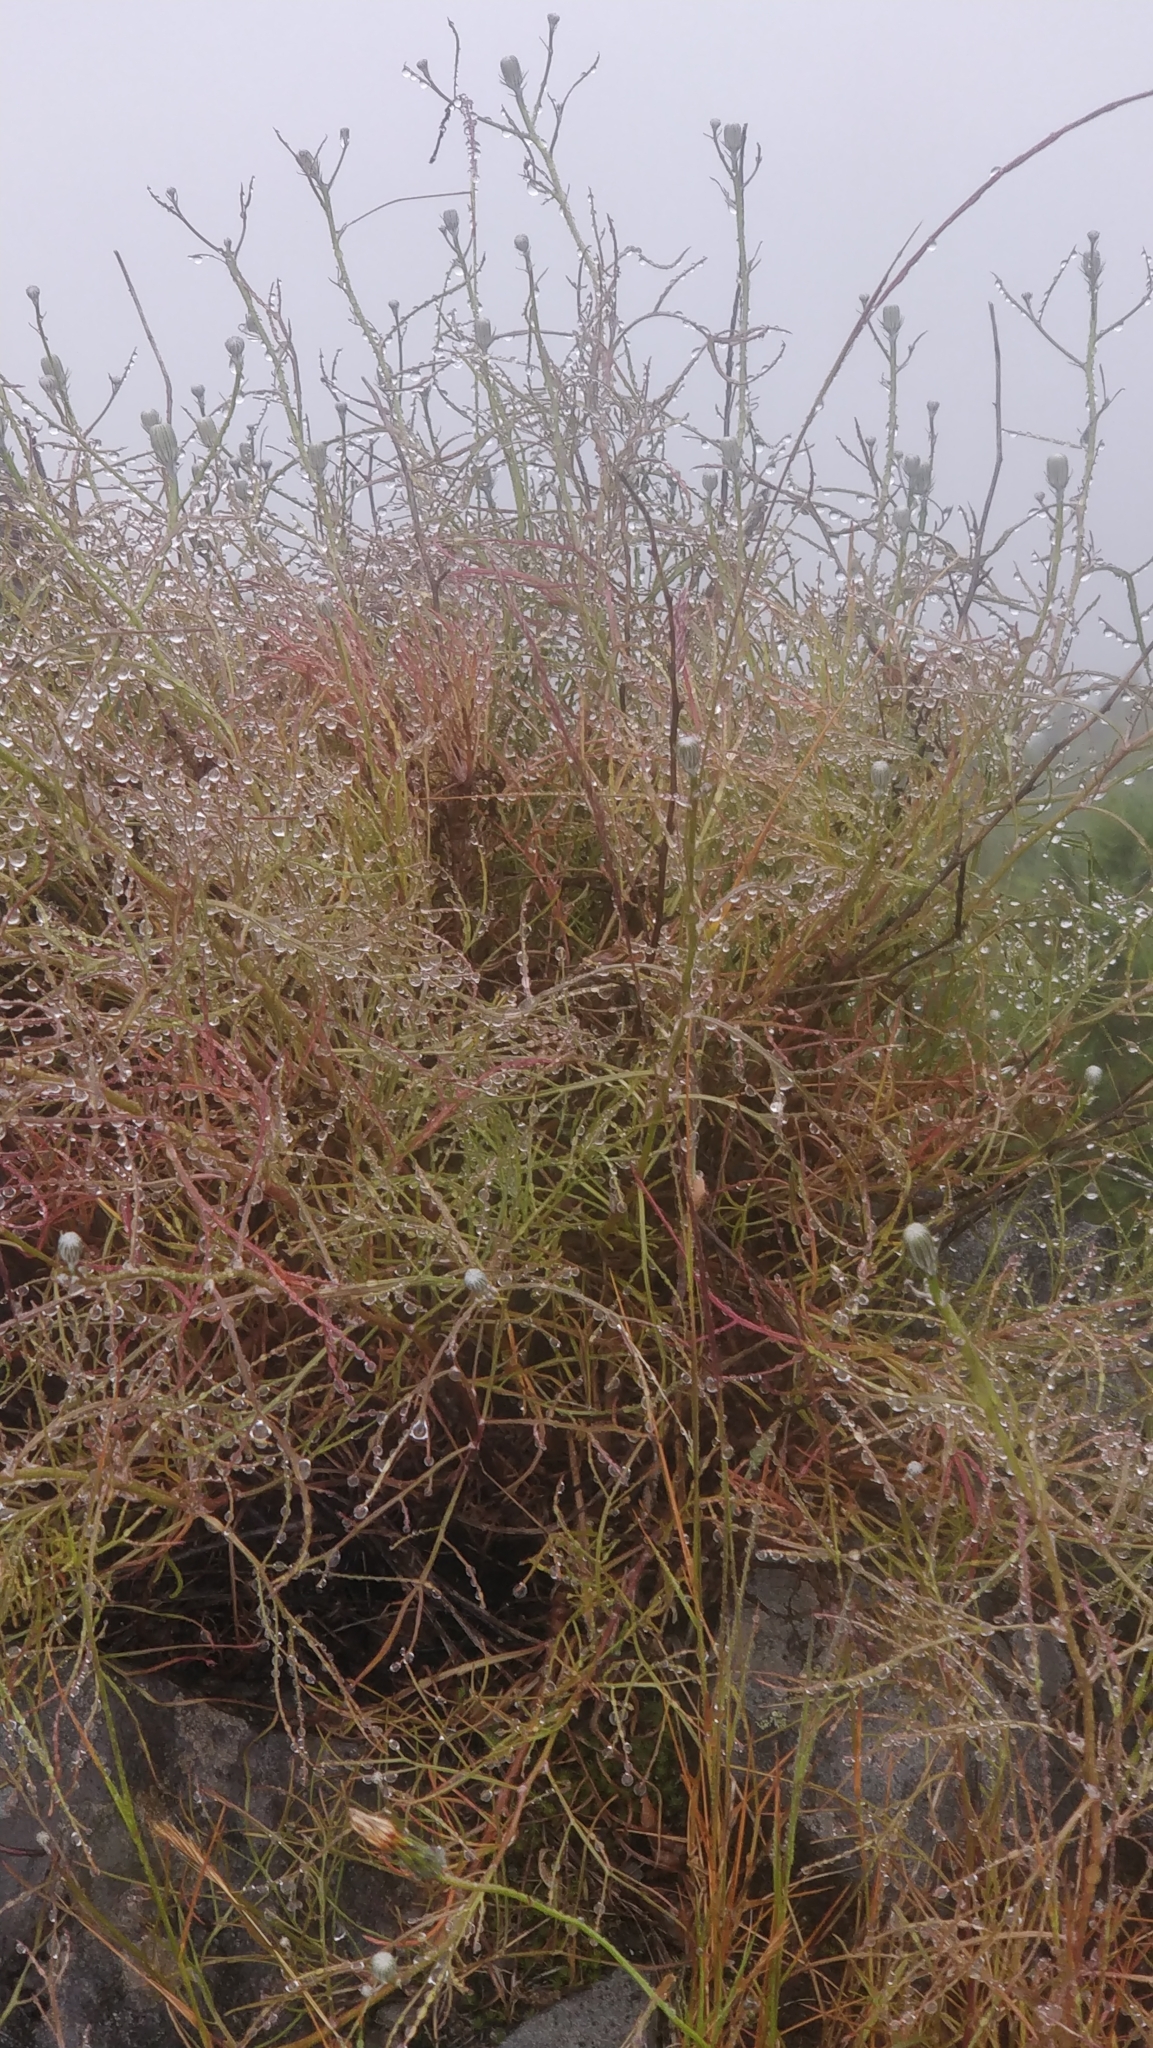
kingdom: Plantae
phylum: Tracheophyta
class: Magnoliopsida
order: Asterales
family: Asteraceae
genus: Tolpis
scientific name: Tolpis succulenta
